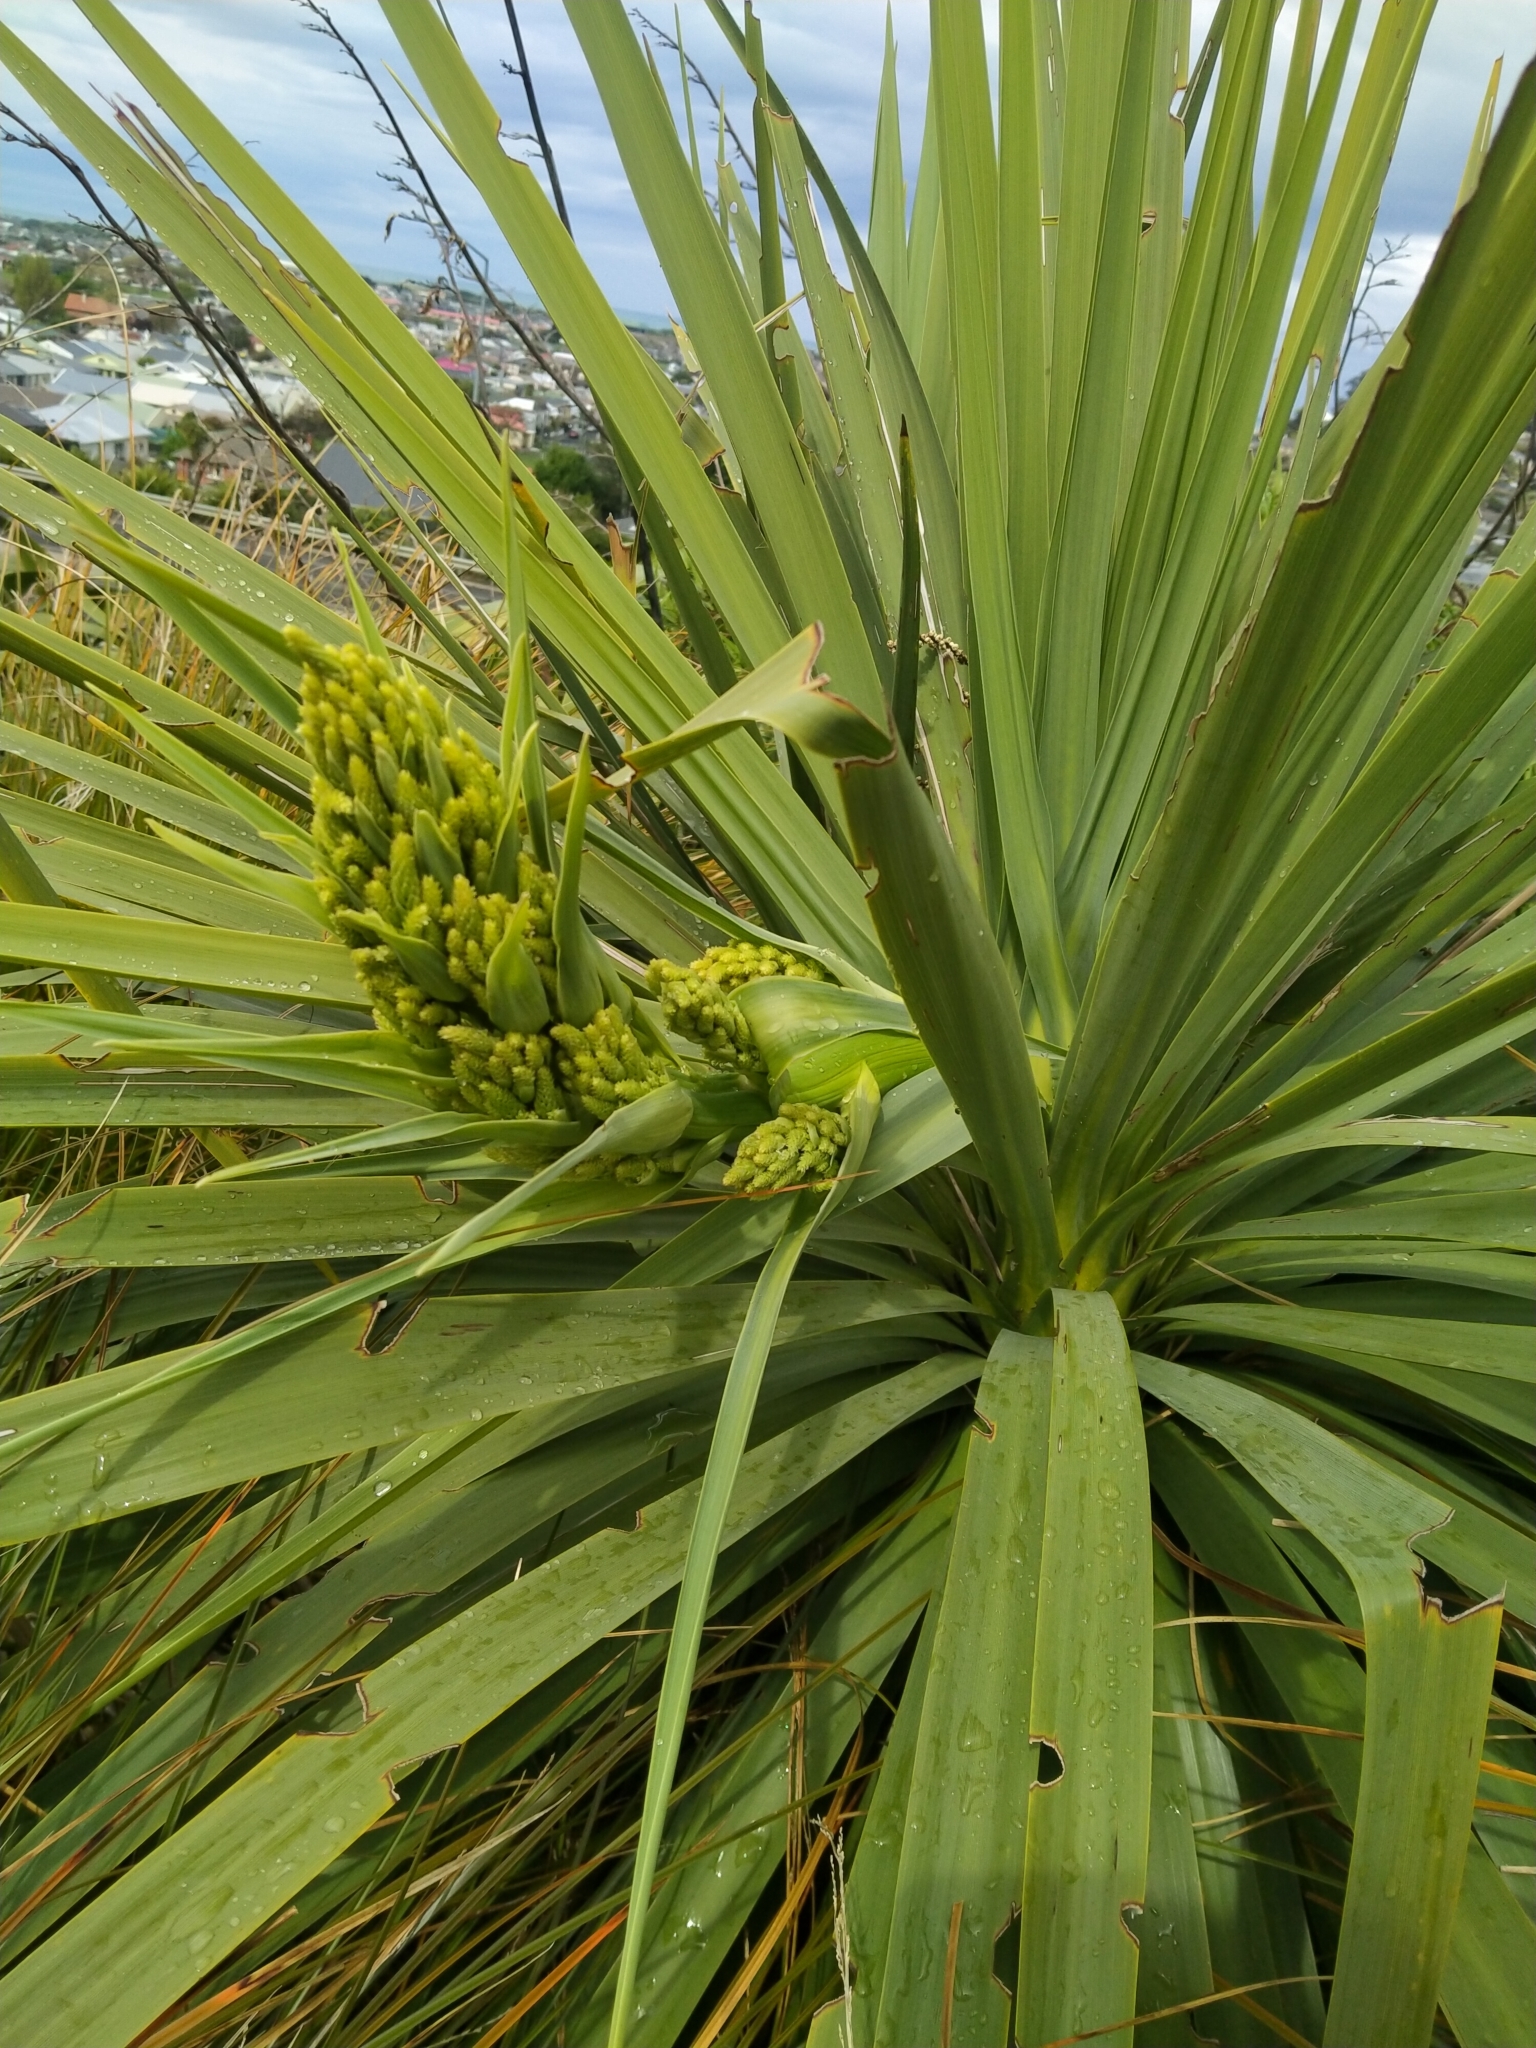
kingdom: Plantae
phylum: Tracheophyta
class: Liliopsida
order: Asparagales
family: Asparagaceae
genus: Cordyline
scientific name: Cordyline australis
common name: Cabbage-palm
